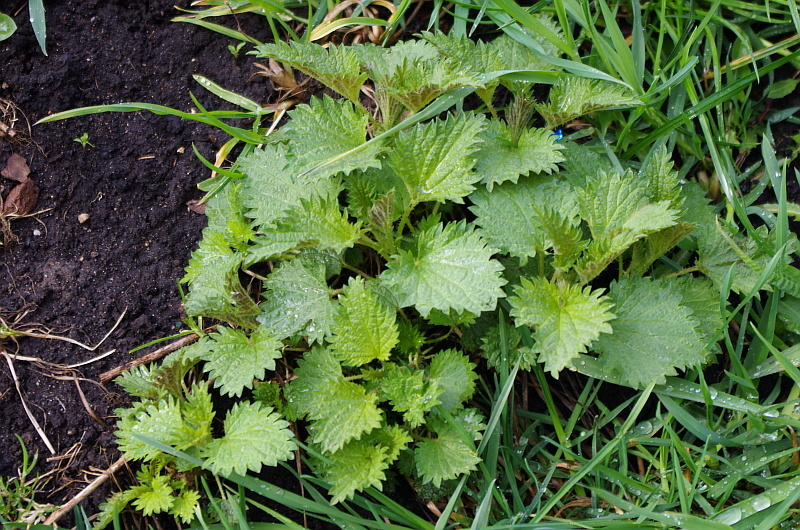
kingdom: Plantae
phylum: Tracheophyta
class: Magnoliopsida
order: Rosales
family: Urticaceae
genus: Urtica
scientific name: Urtica dioica
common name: Common nettle
